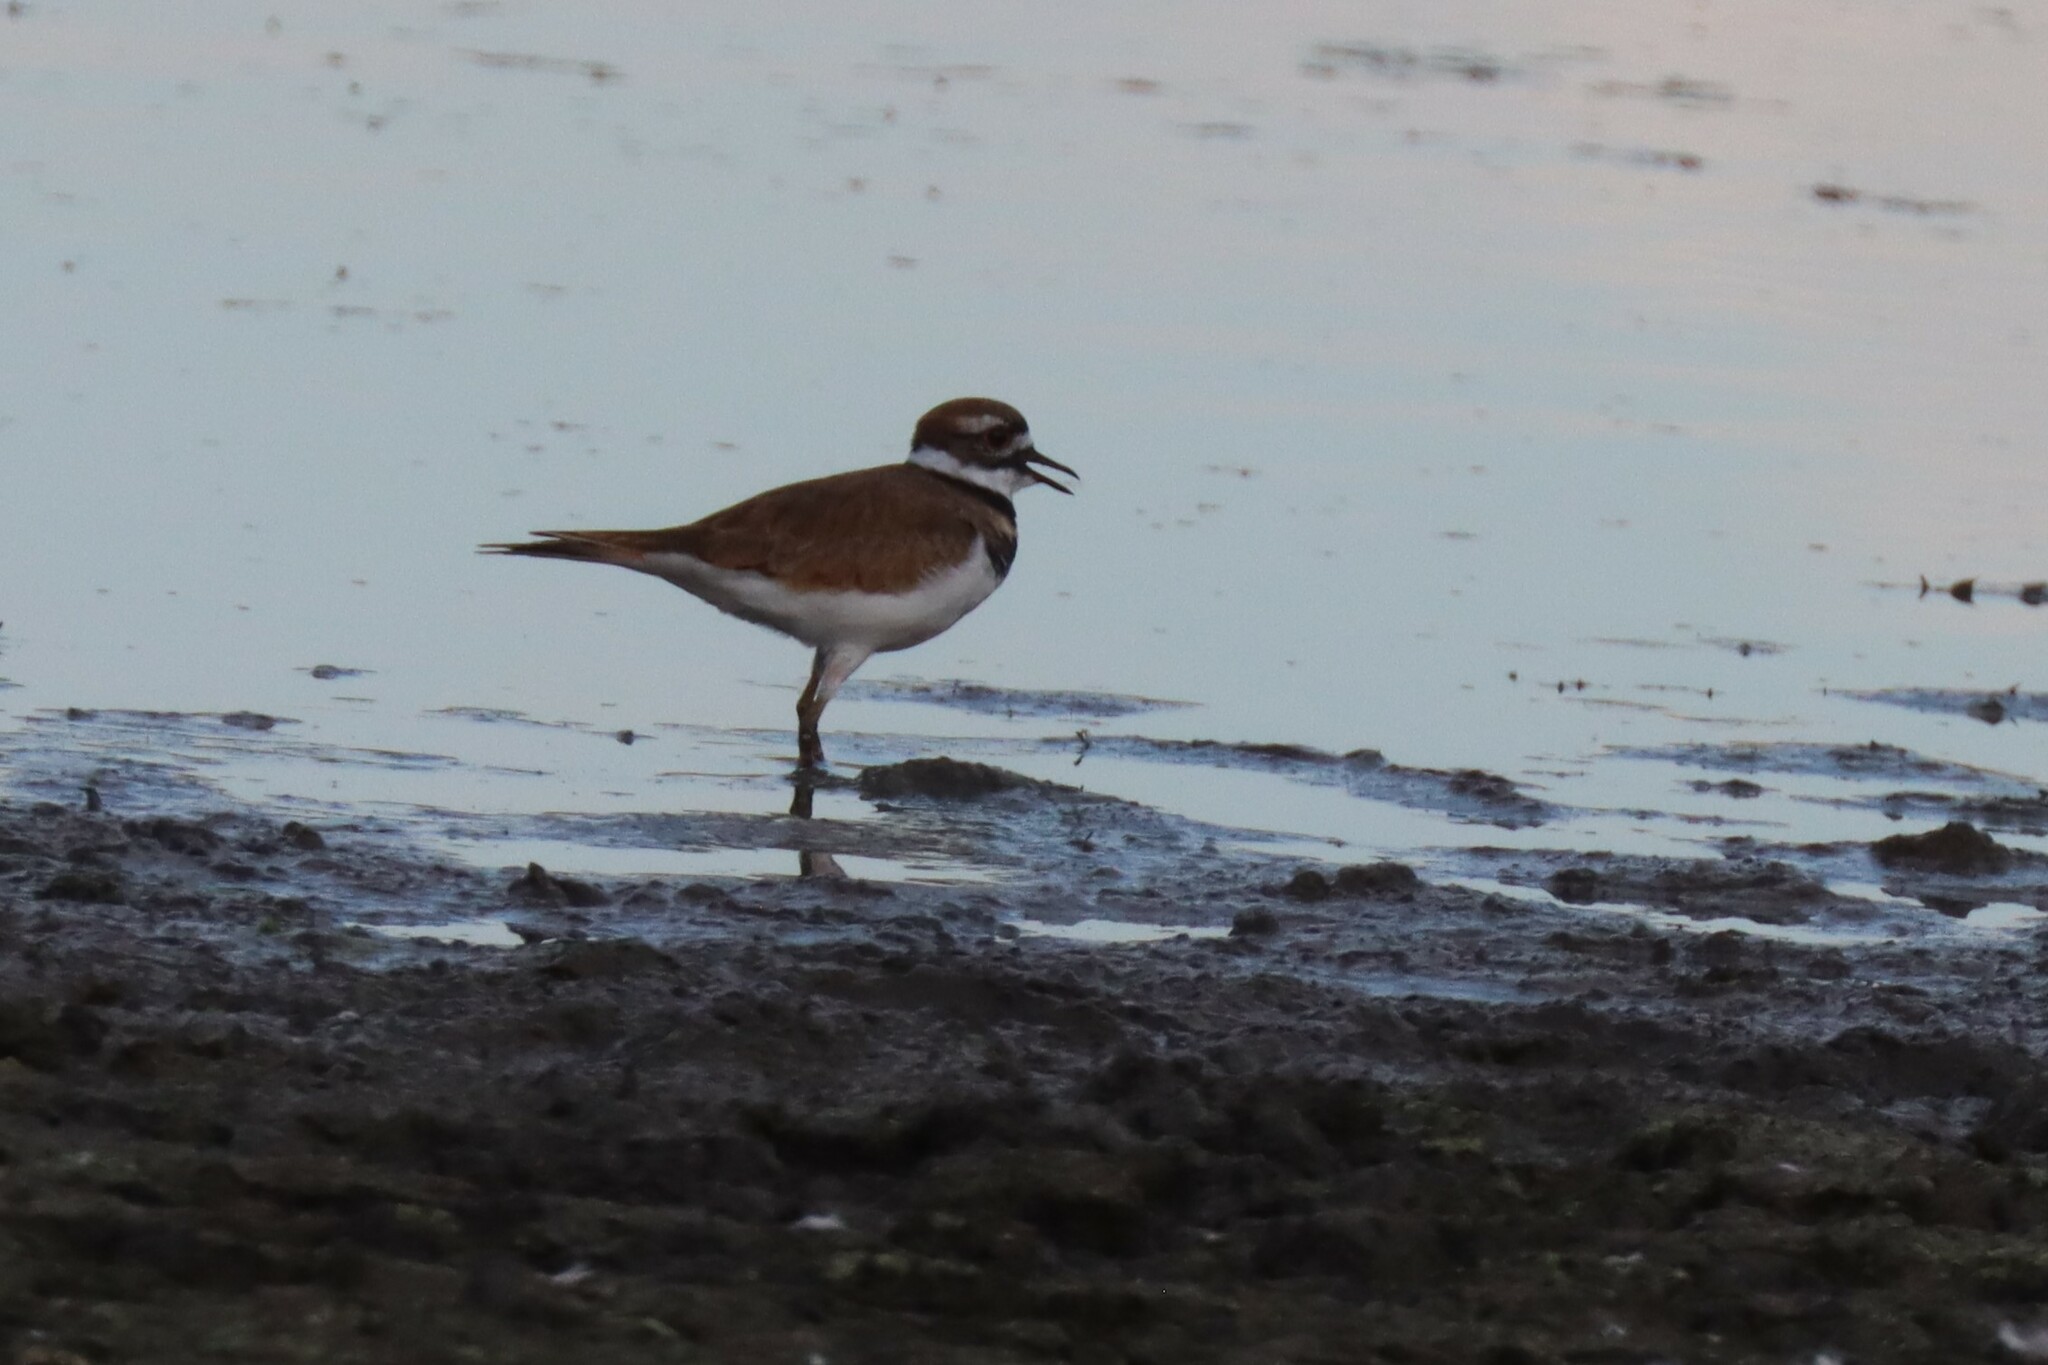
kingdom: Animalia
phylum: Chordata
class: Aves
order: Charadriiformes
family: Charadriidae
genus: Charadrius
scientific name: Charadrius vociferus
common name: Killdeer
